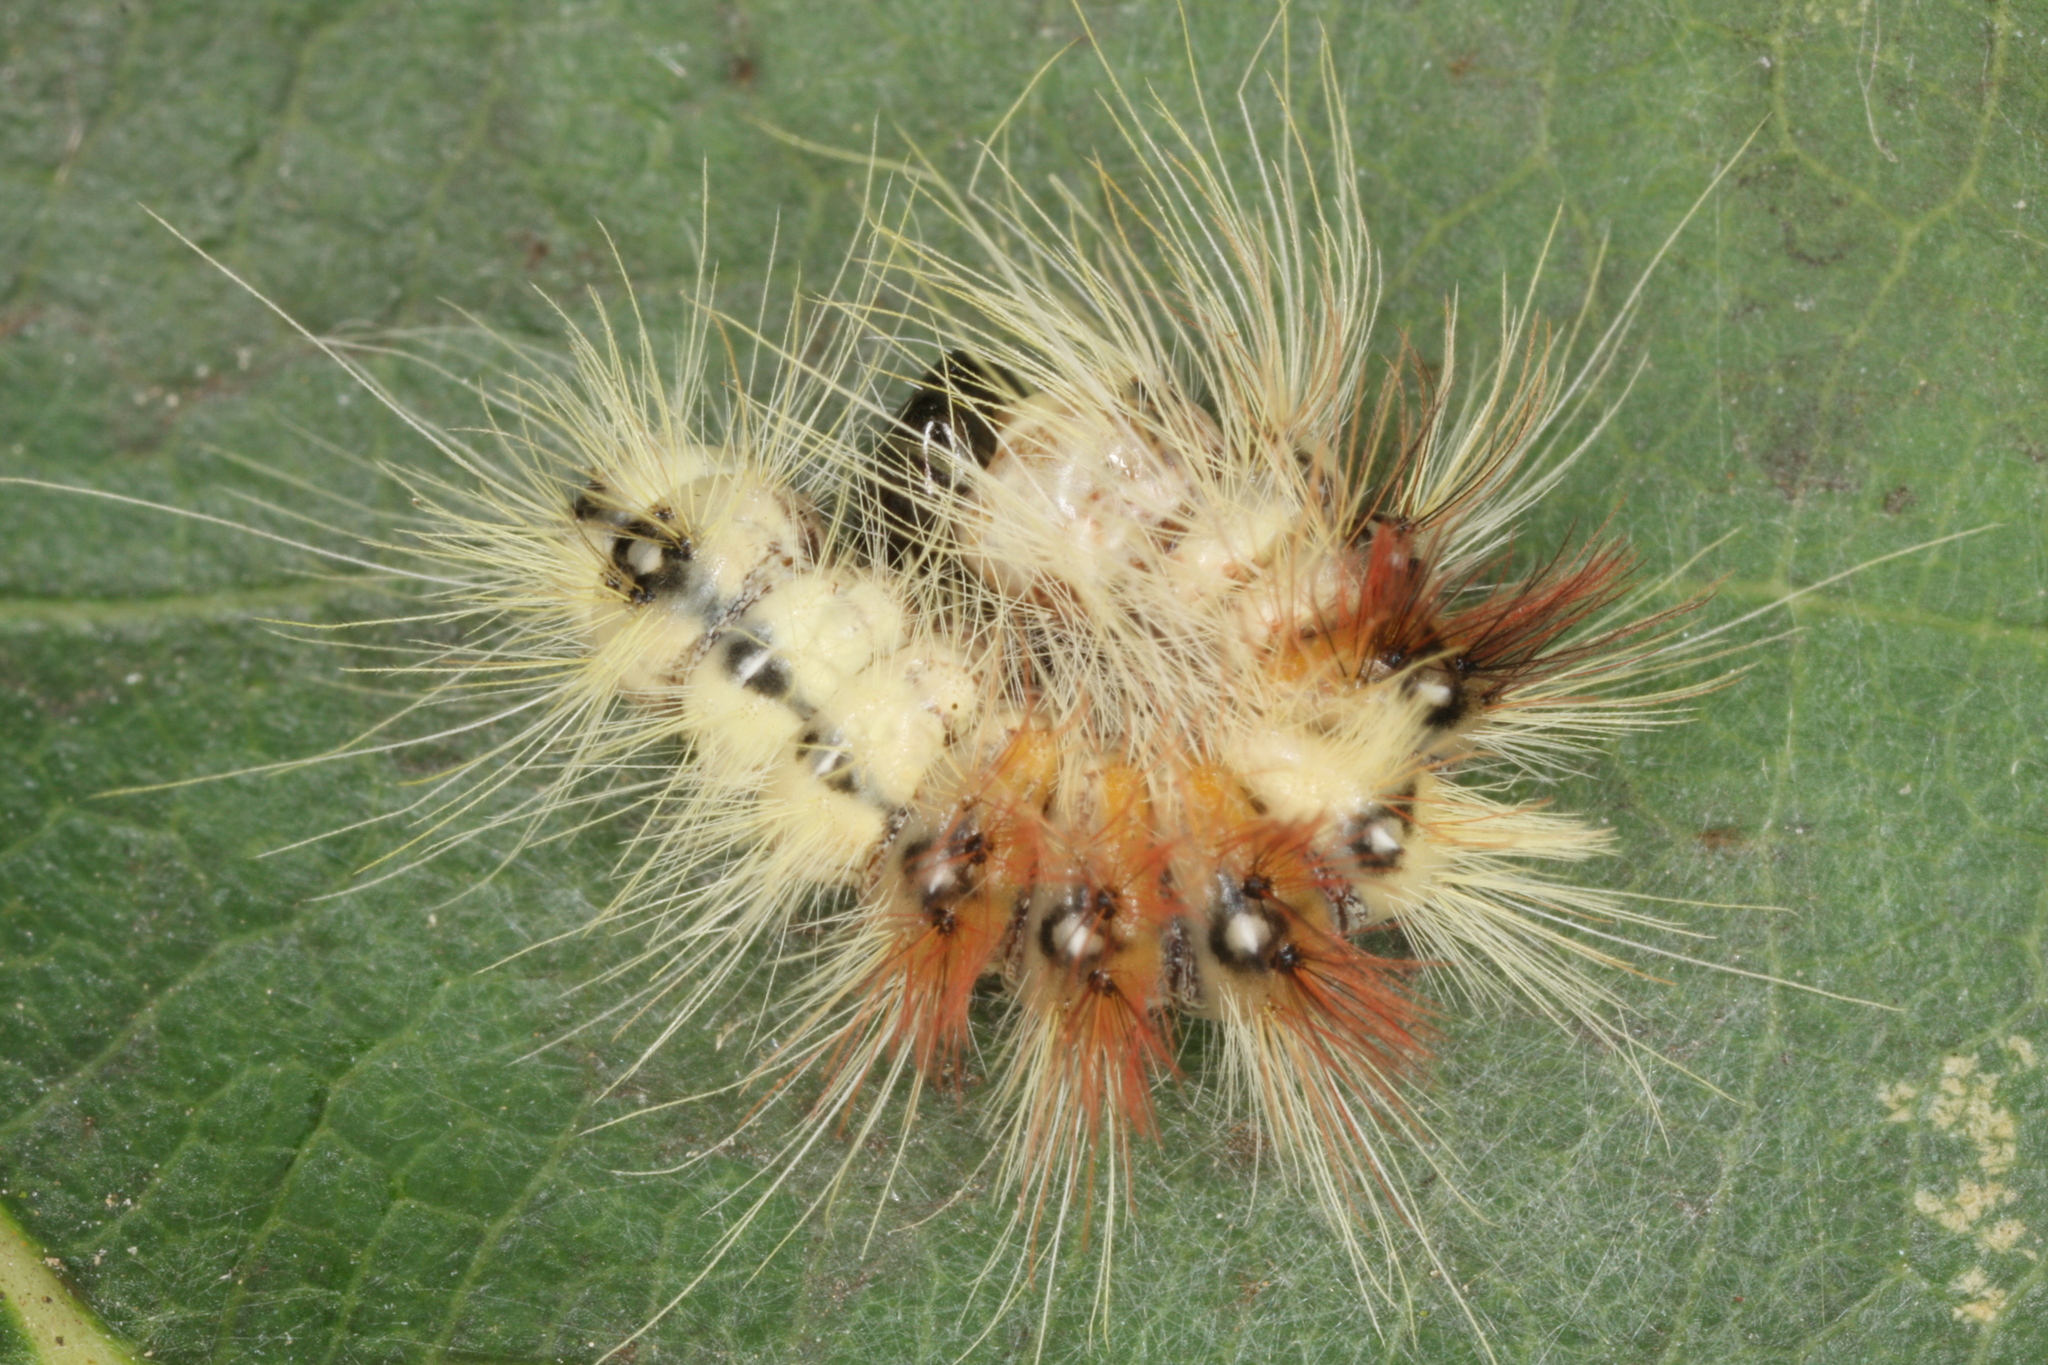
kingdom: Animalia
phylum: Arthropoda
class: Insecta
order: Lepidoptera
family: Noctuidae
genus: Acronicta
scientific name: Acronicta aceris
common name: Sycamore
